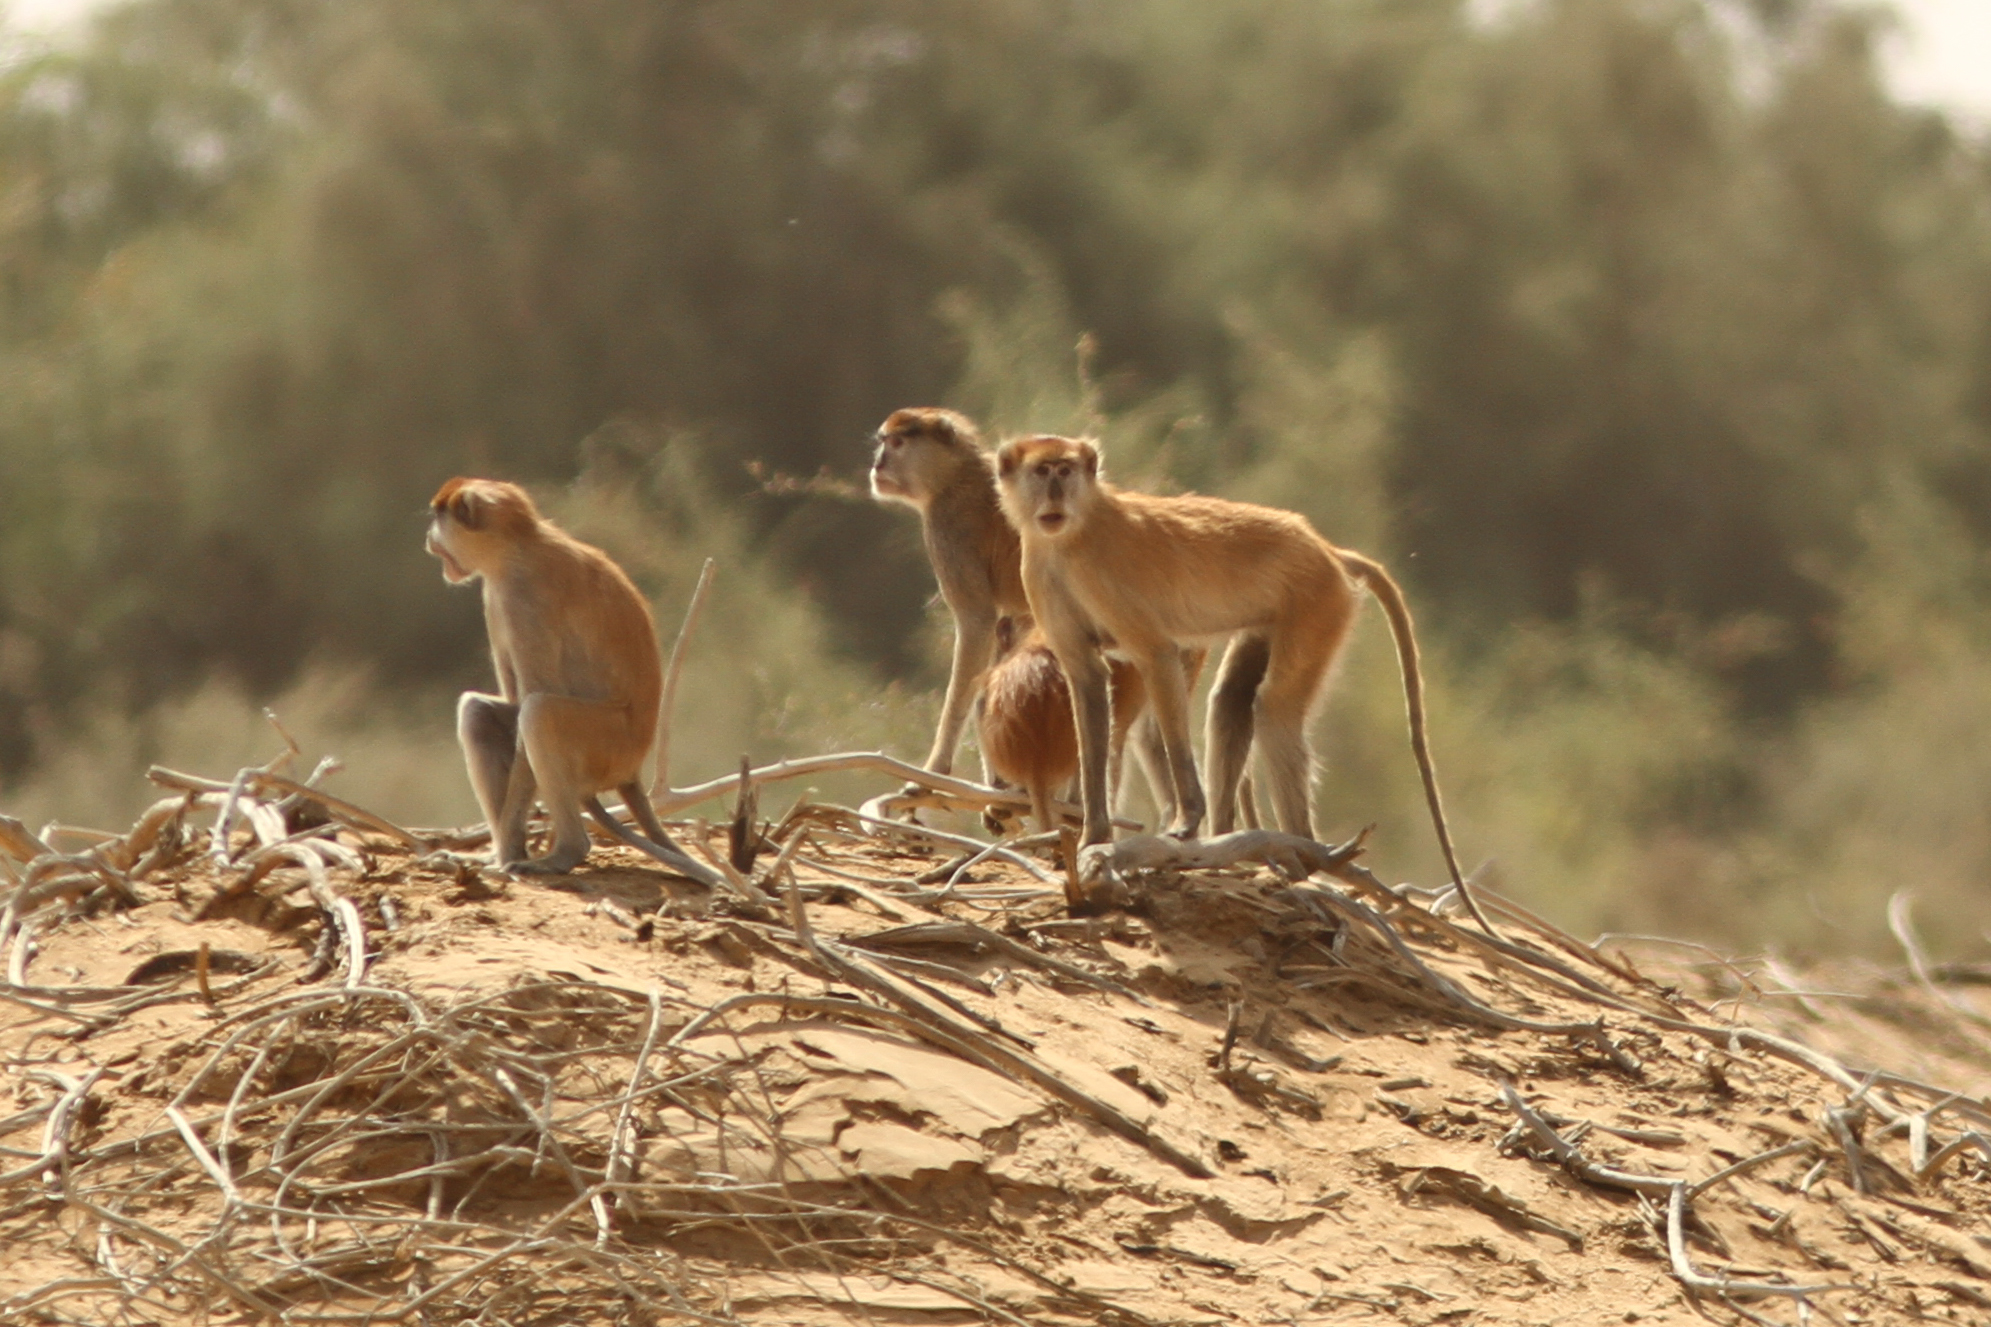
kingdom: Animalia
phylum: Chordata
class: Mammalia
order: Primates
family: Cercopithecidae
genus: Erythrocebus
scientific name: Erythrocebus patas
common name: Patas monkey
